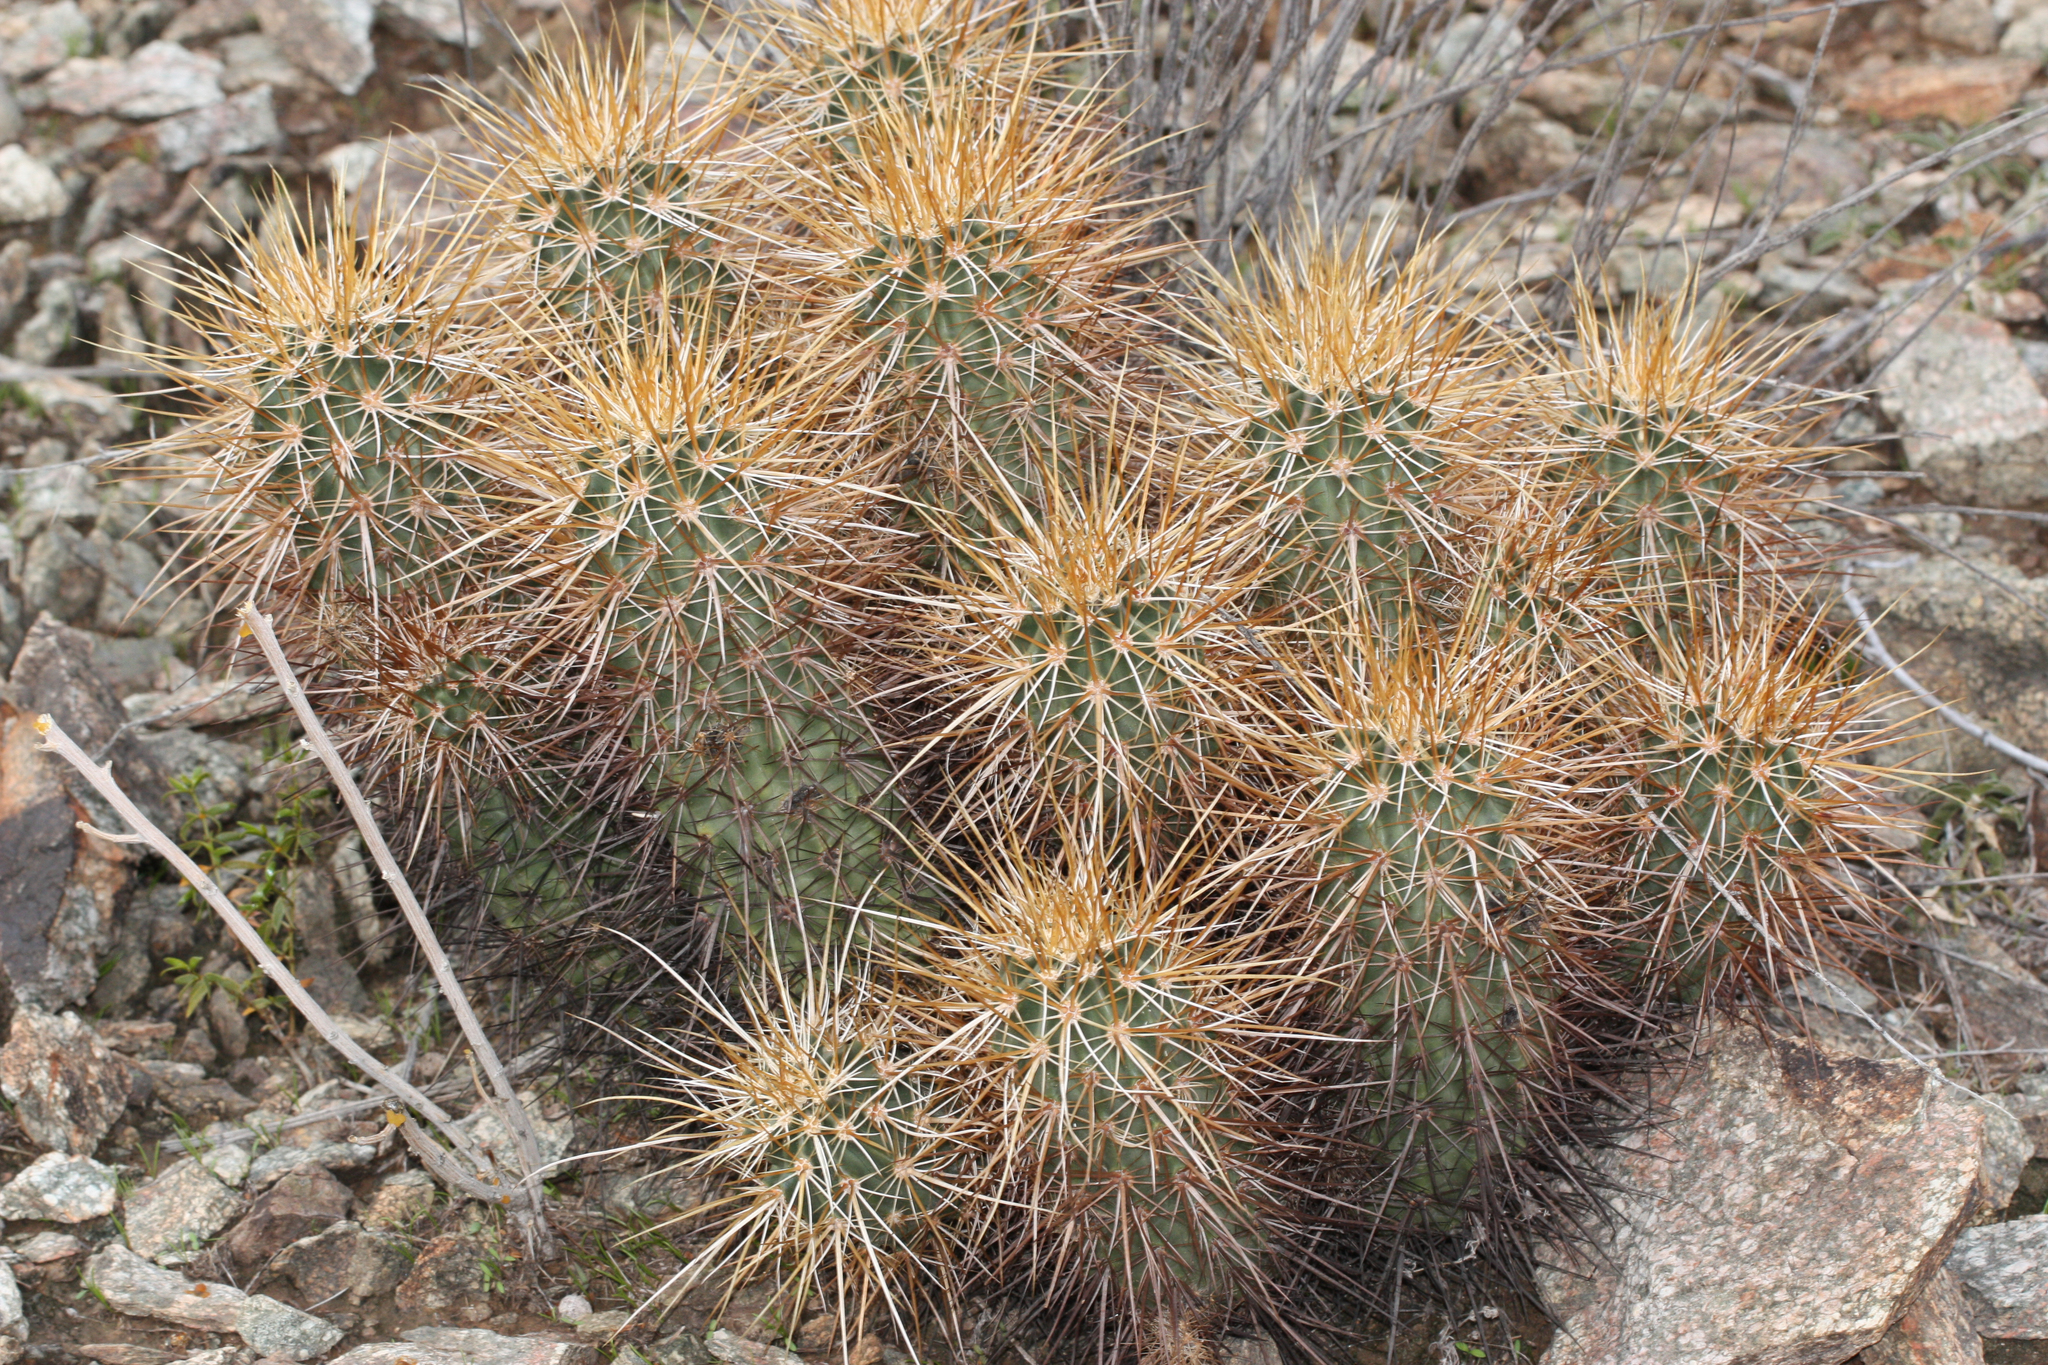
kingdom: Plantae
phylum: Tracheophyta
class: Magnoliopsida
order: Caryophyllales
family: Cactaceae
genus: Echinocereus
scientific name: Echinocereus engelmannii
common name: Engelmann's hedgehog cactus
